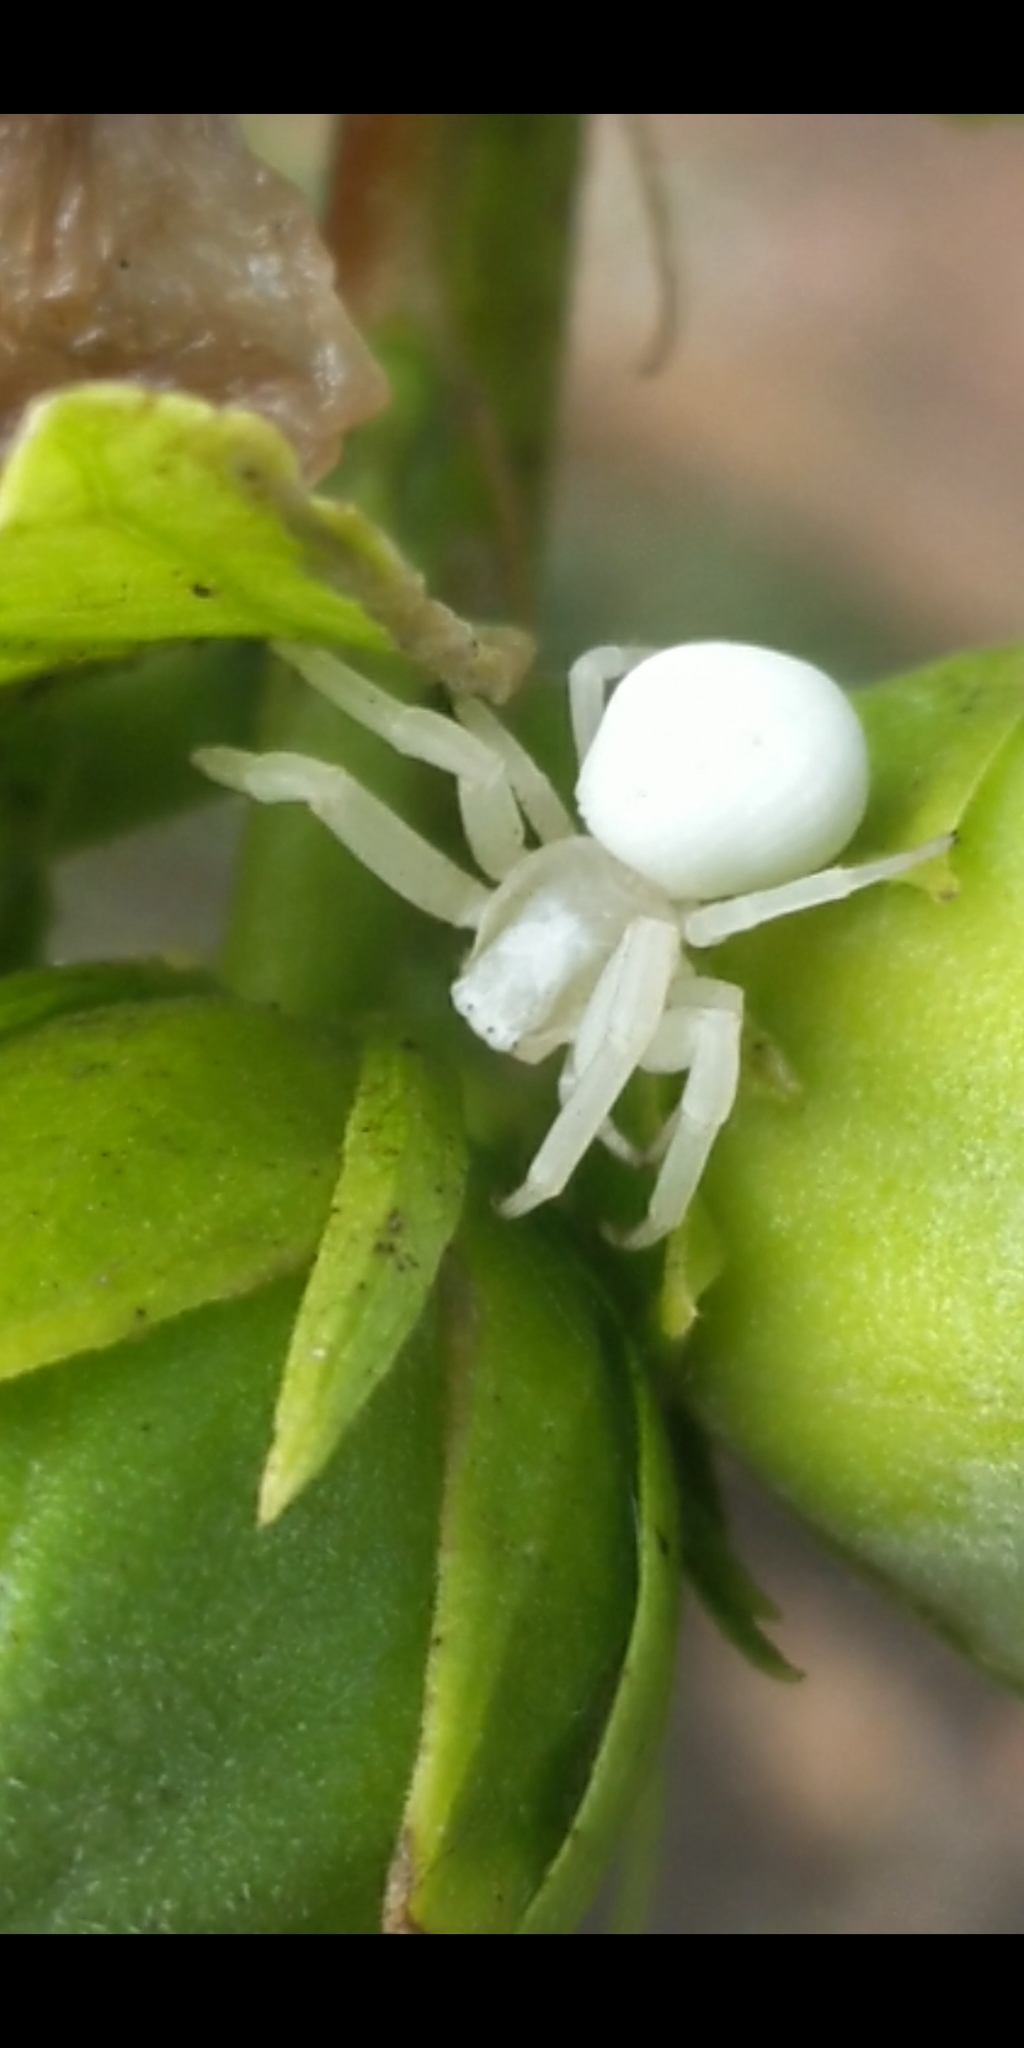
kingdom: Animalia
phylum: Arthropoda
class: Arachnida
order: Araneae
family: Thomisidae
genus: Misumena
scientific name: Misumena vatia
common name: Goldenrod crab spider
